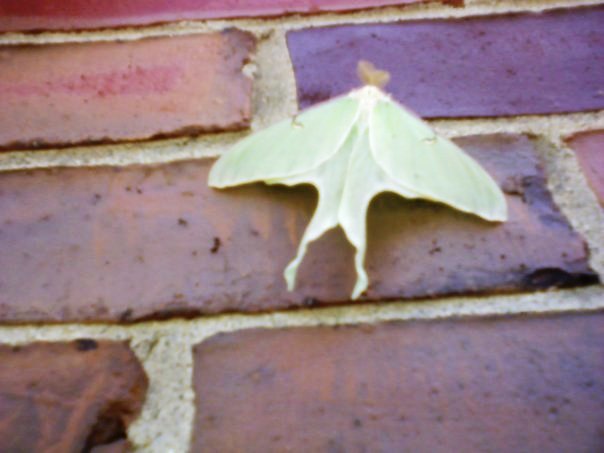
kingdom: Animalia
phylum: Arthropoda
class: Insecta
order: Lepidoptera
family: Saturniidae
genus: Actias
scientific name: Actias luna
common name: Luna moth
